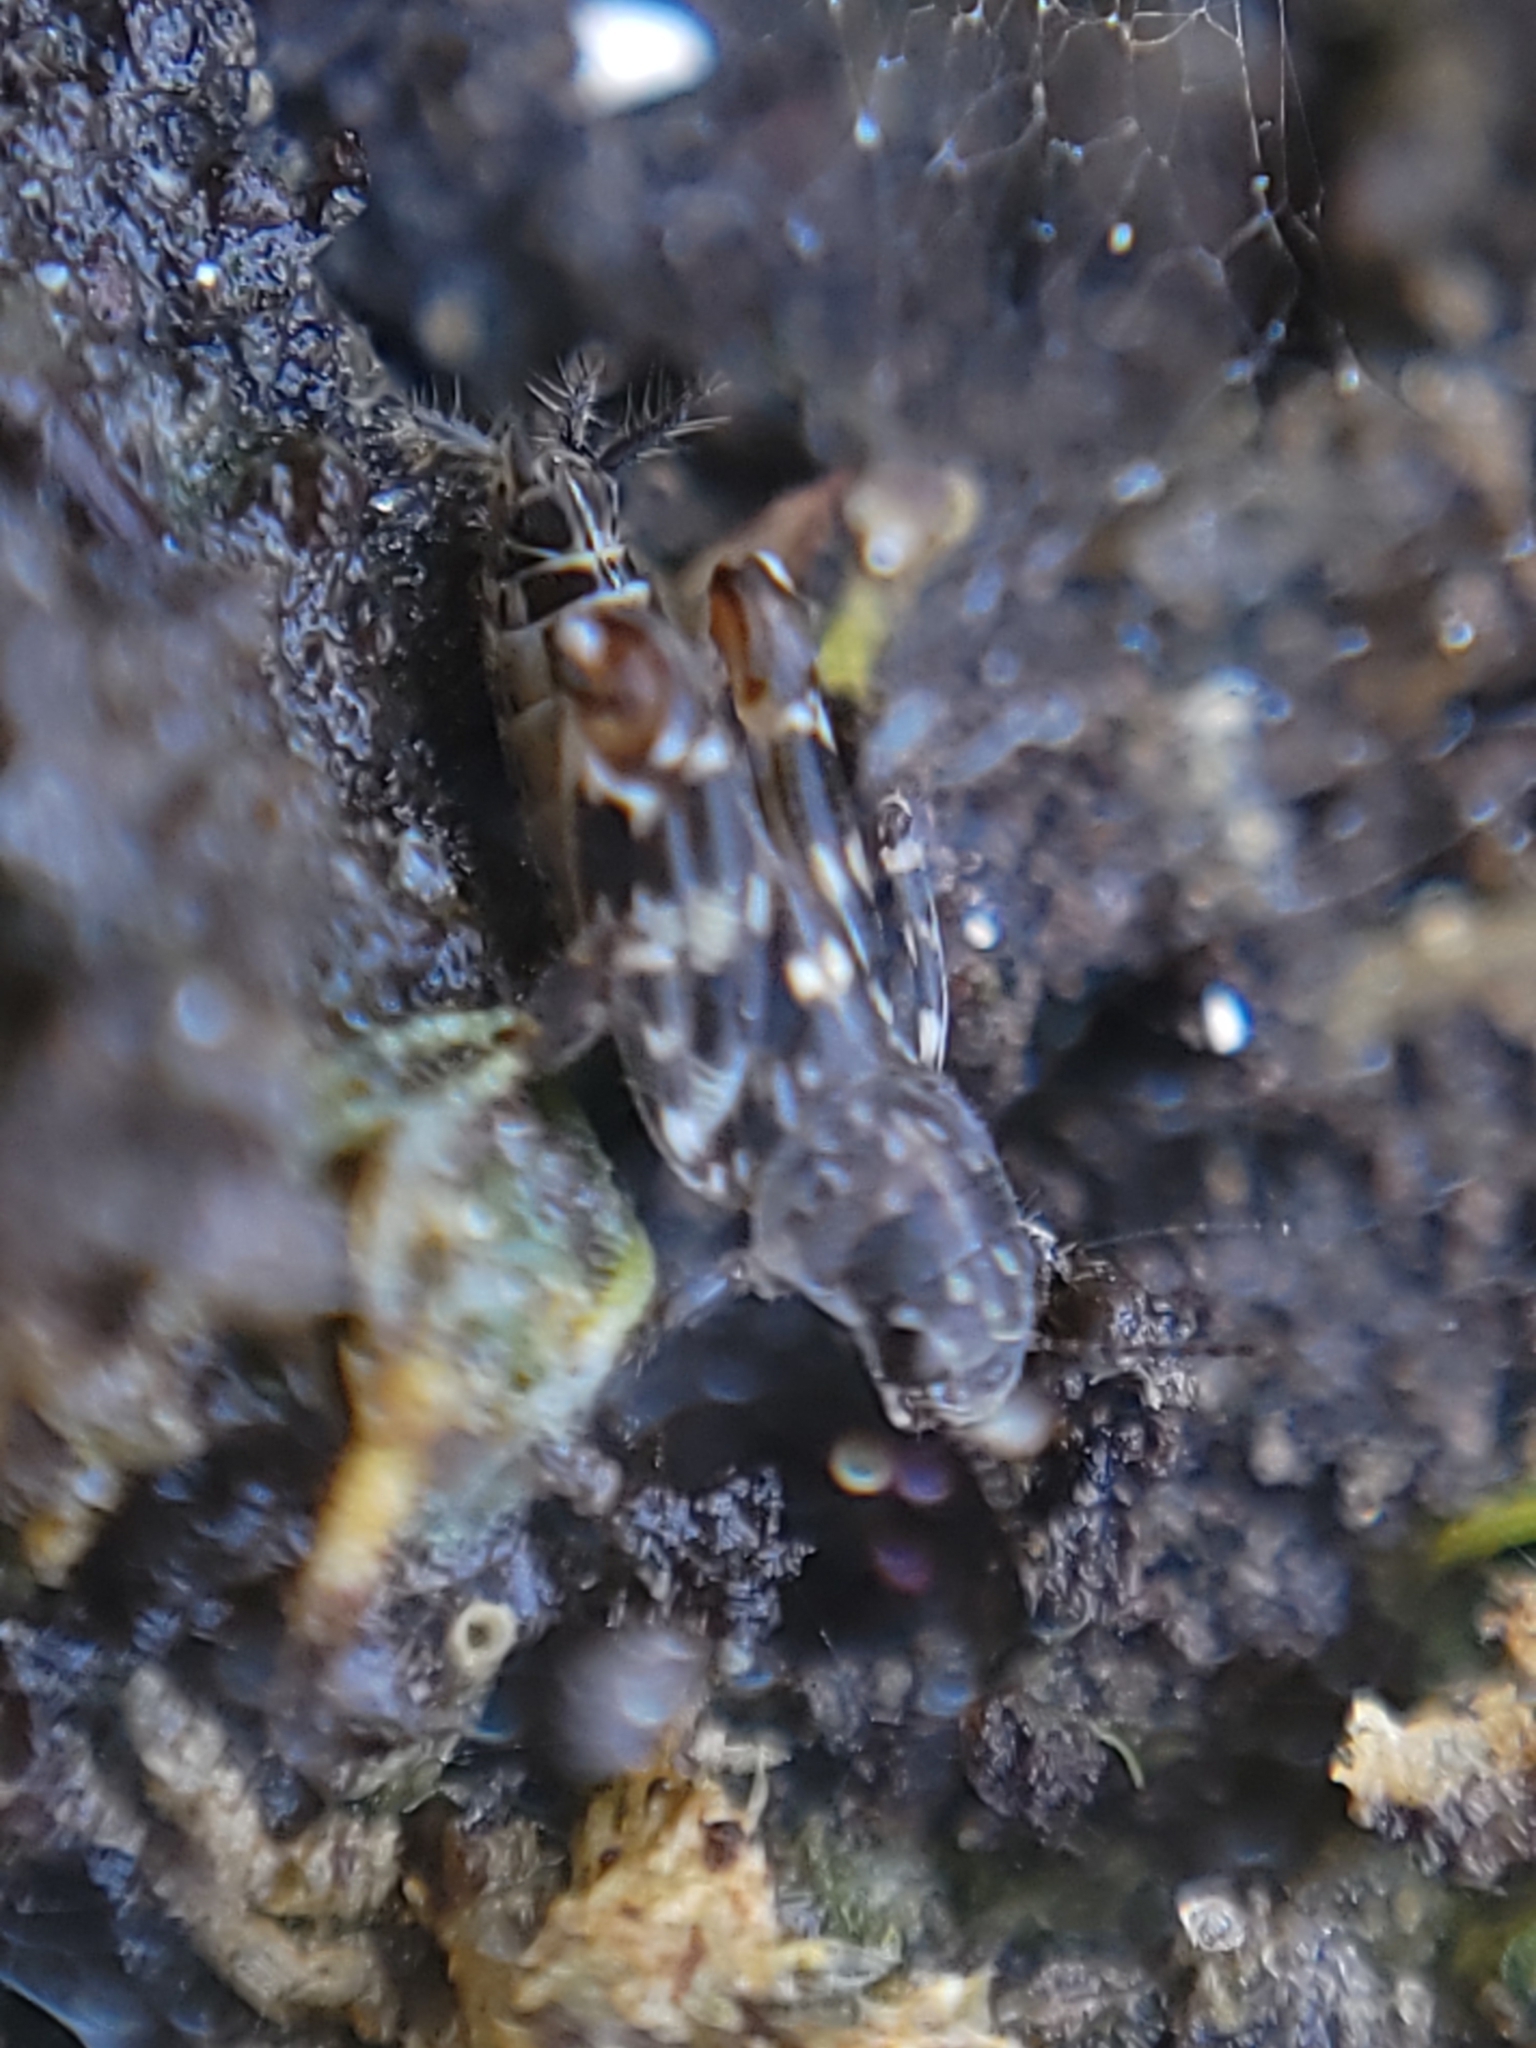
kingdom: Animalia
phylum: Arthropoda
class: Insecta
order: Orthoptera
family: Tridactylidae
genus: Ellipes
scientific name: Ellipes minuta
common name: Minute pygmy locust
